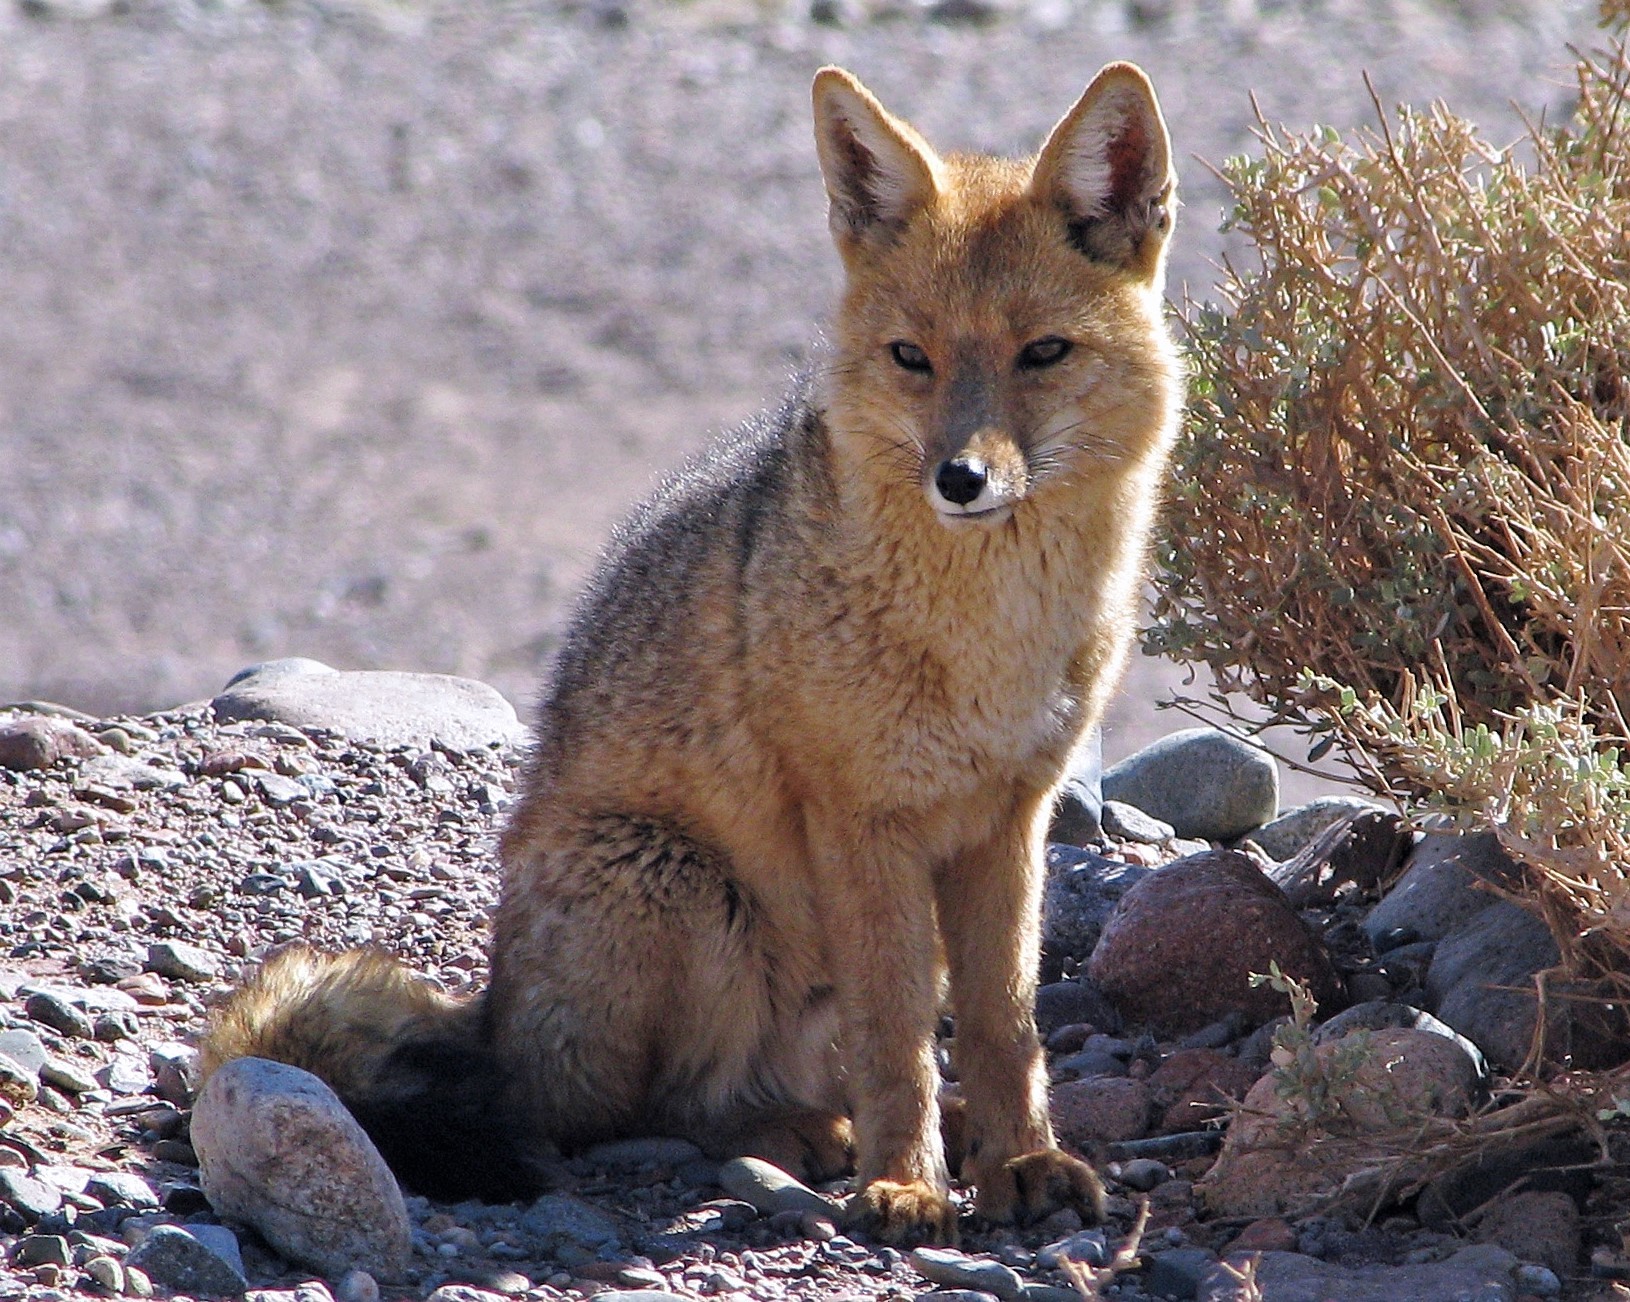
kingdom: Animalia
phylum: Chordata
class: Mammalia
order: Carnivora
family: Canidae
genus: Lycalopex
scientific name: Lycalopex culpaeus
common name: Culpeo
